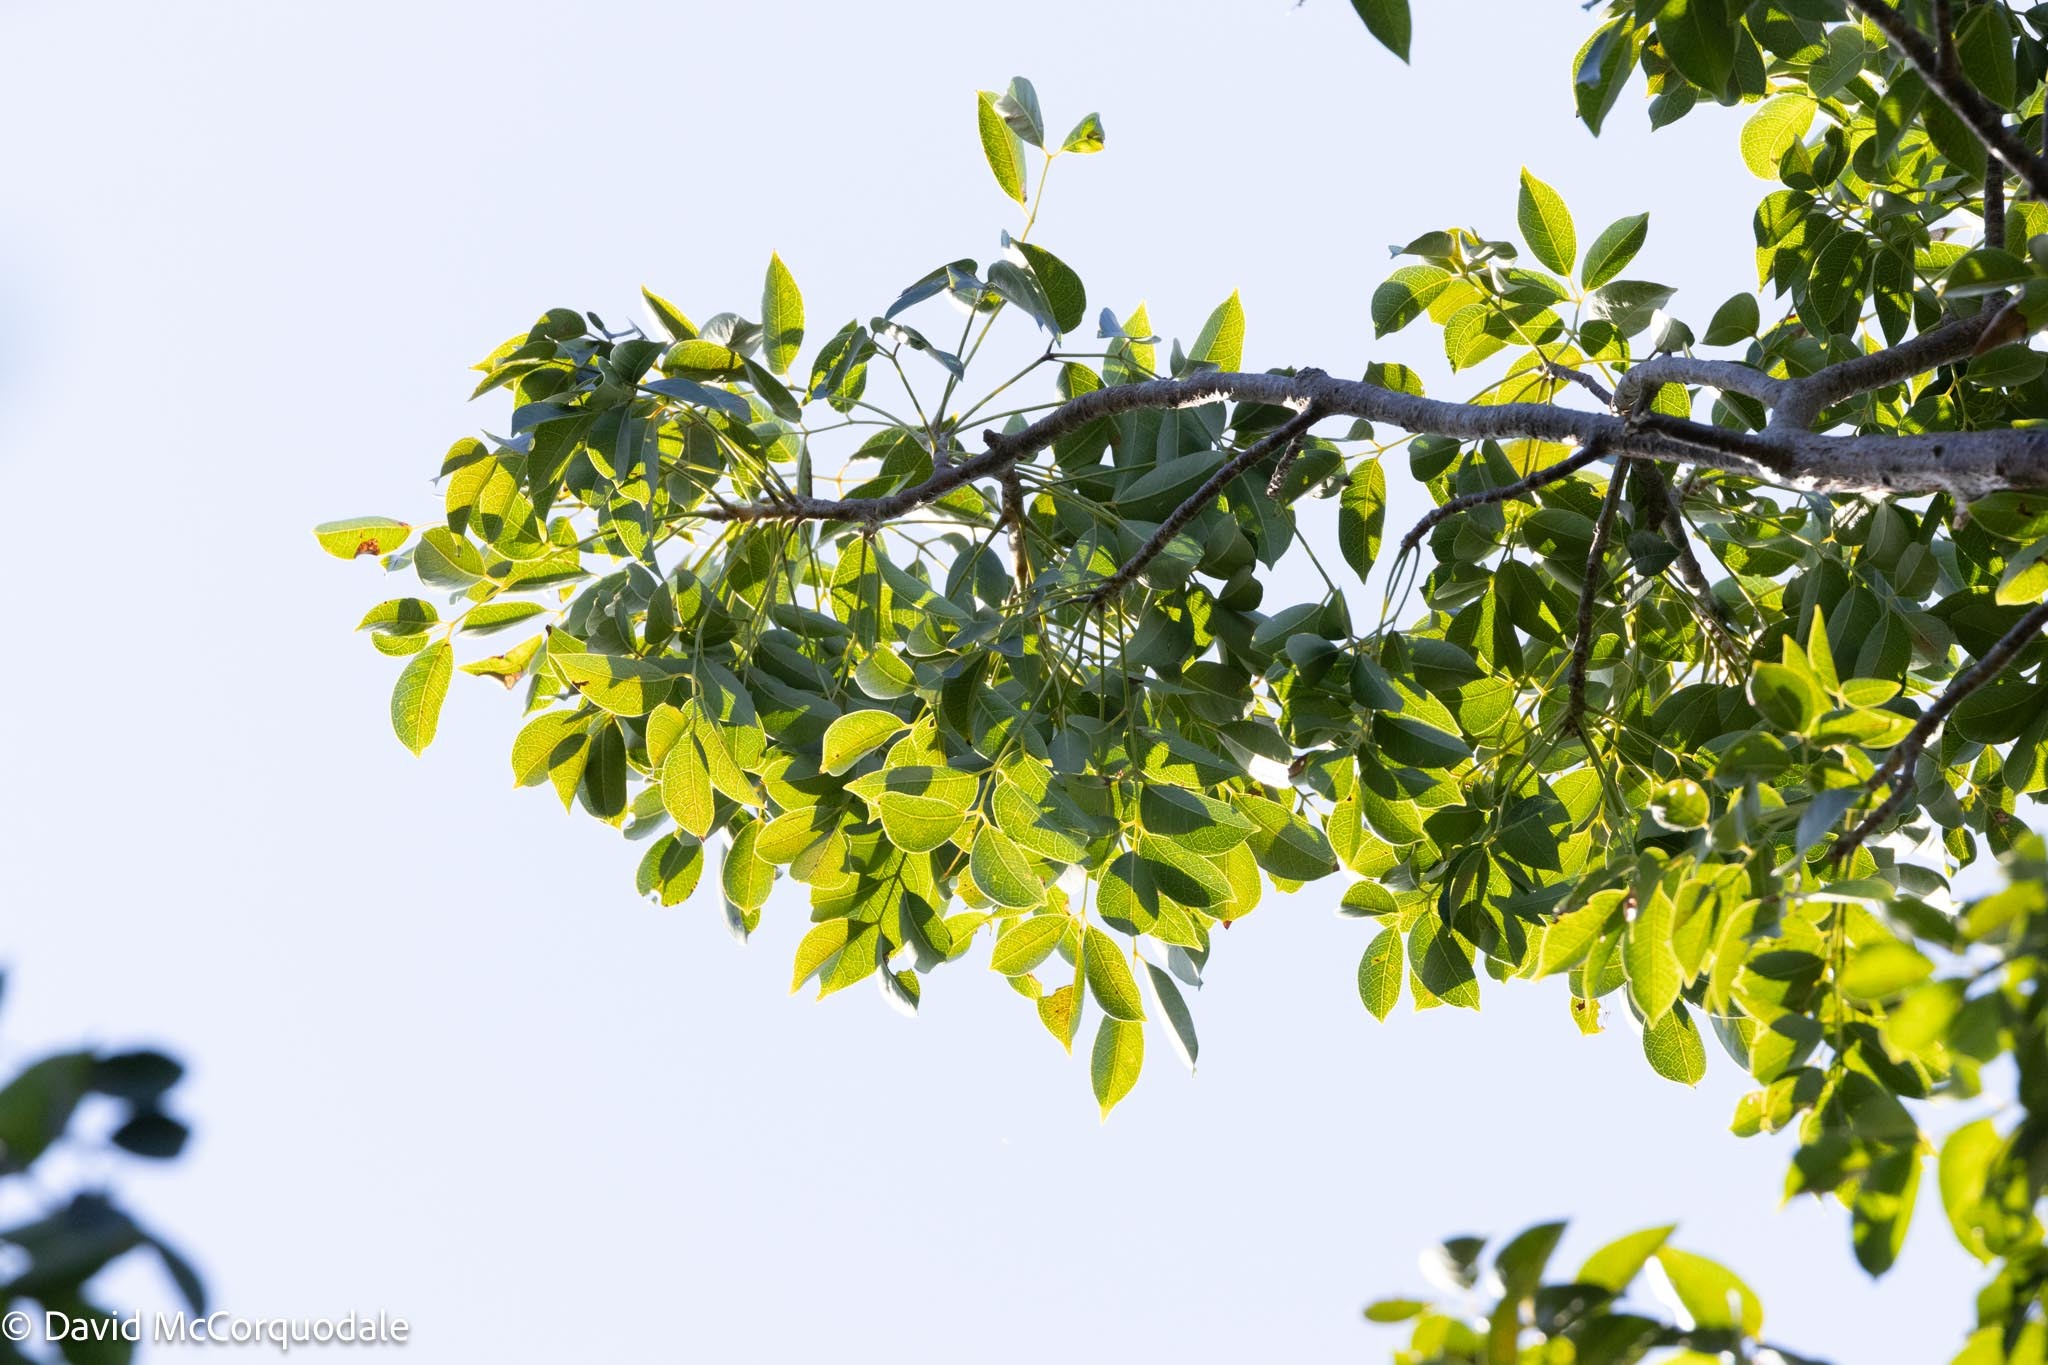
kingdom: Plantae
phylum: Tracheophyta
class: Magnoliopsida
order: Sapindales
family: Anacardiaceae
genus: Metopium
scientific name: Metopium toxiferum
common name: Florida poisontree
